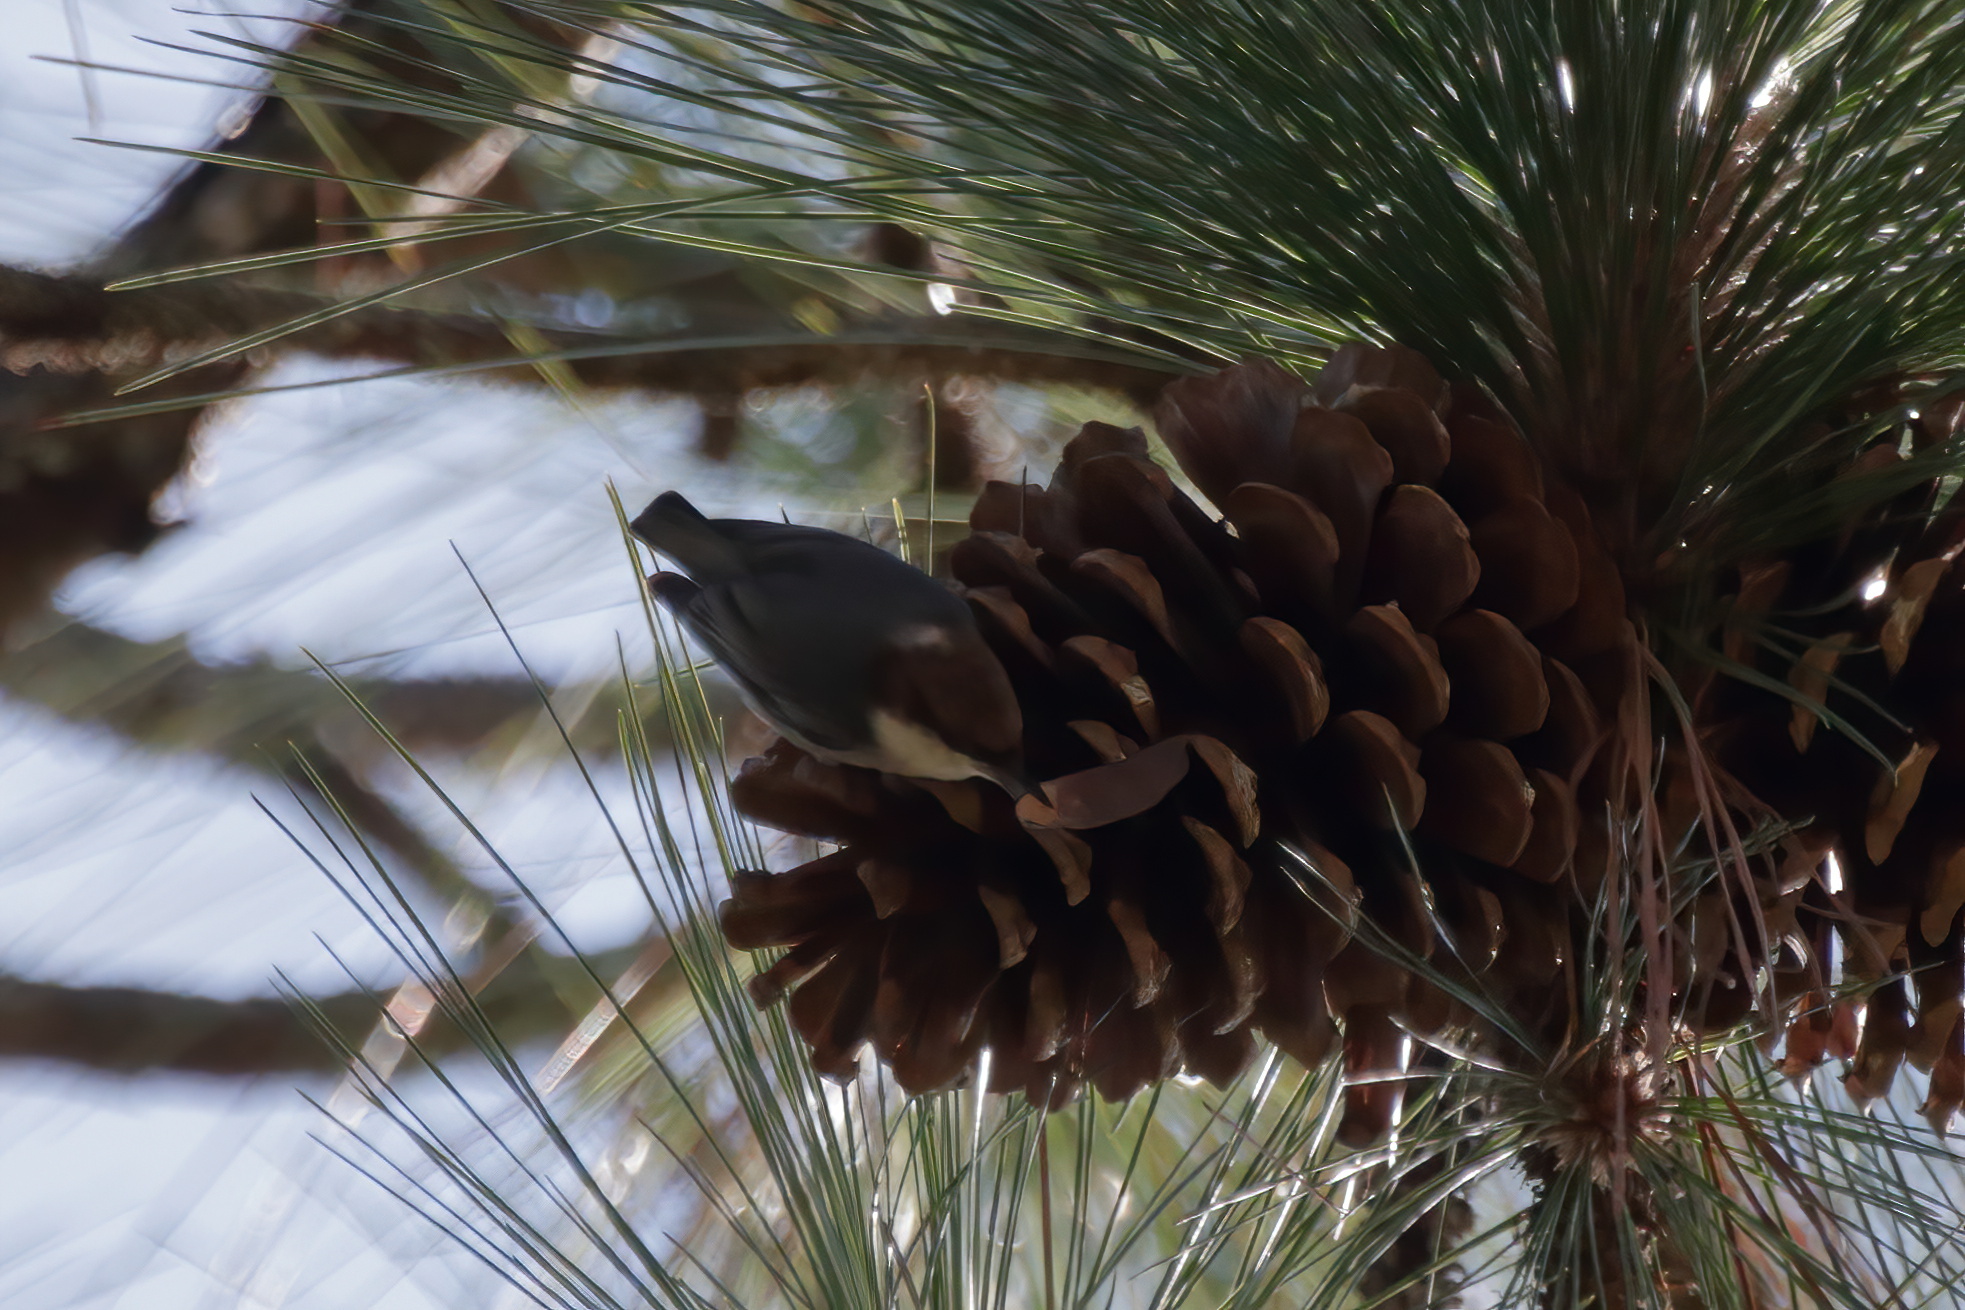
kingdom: Animalia
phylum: Chordata
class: Aves
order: Passeriformes
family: Sittidae
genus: Sitta
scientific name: Sitta pusilla
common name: Brown-headed nuthatch
